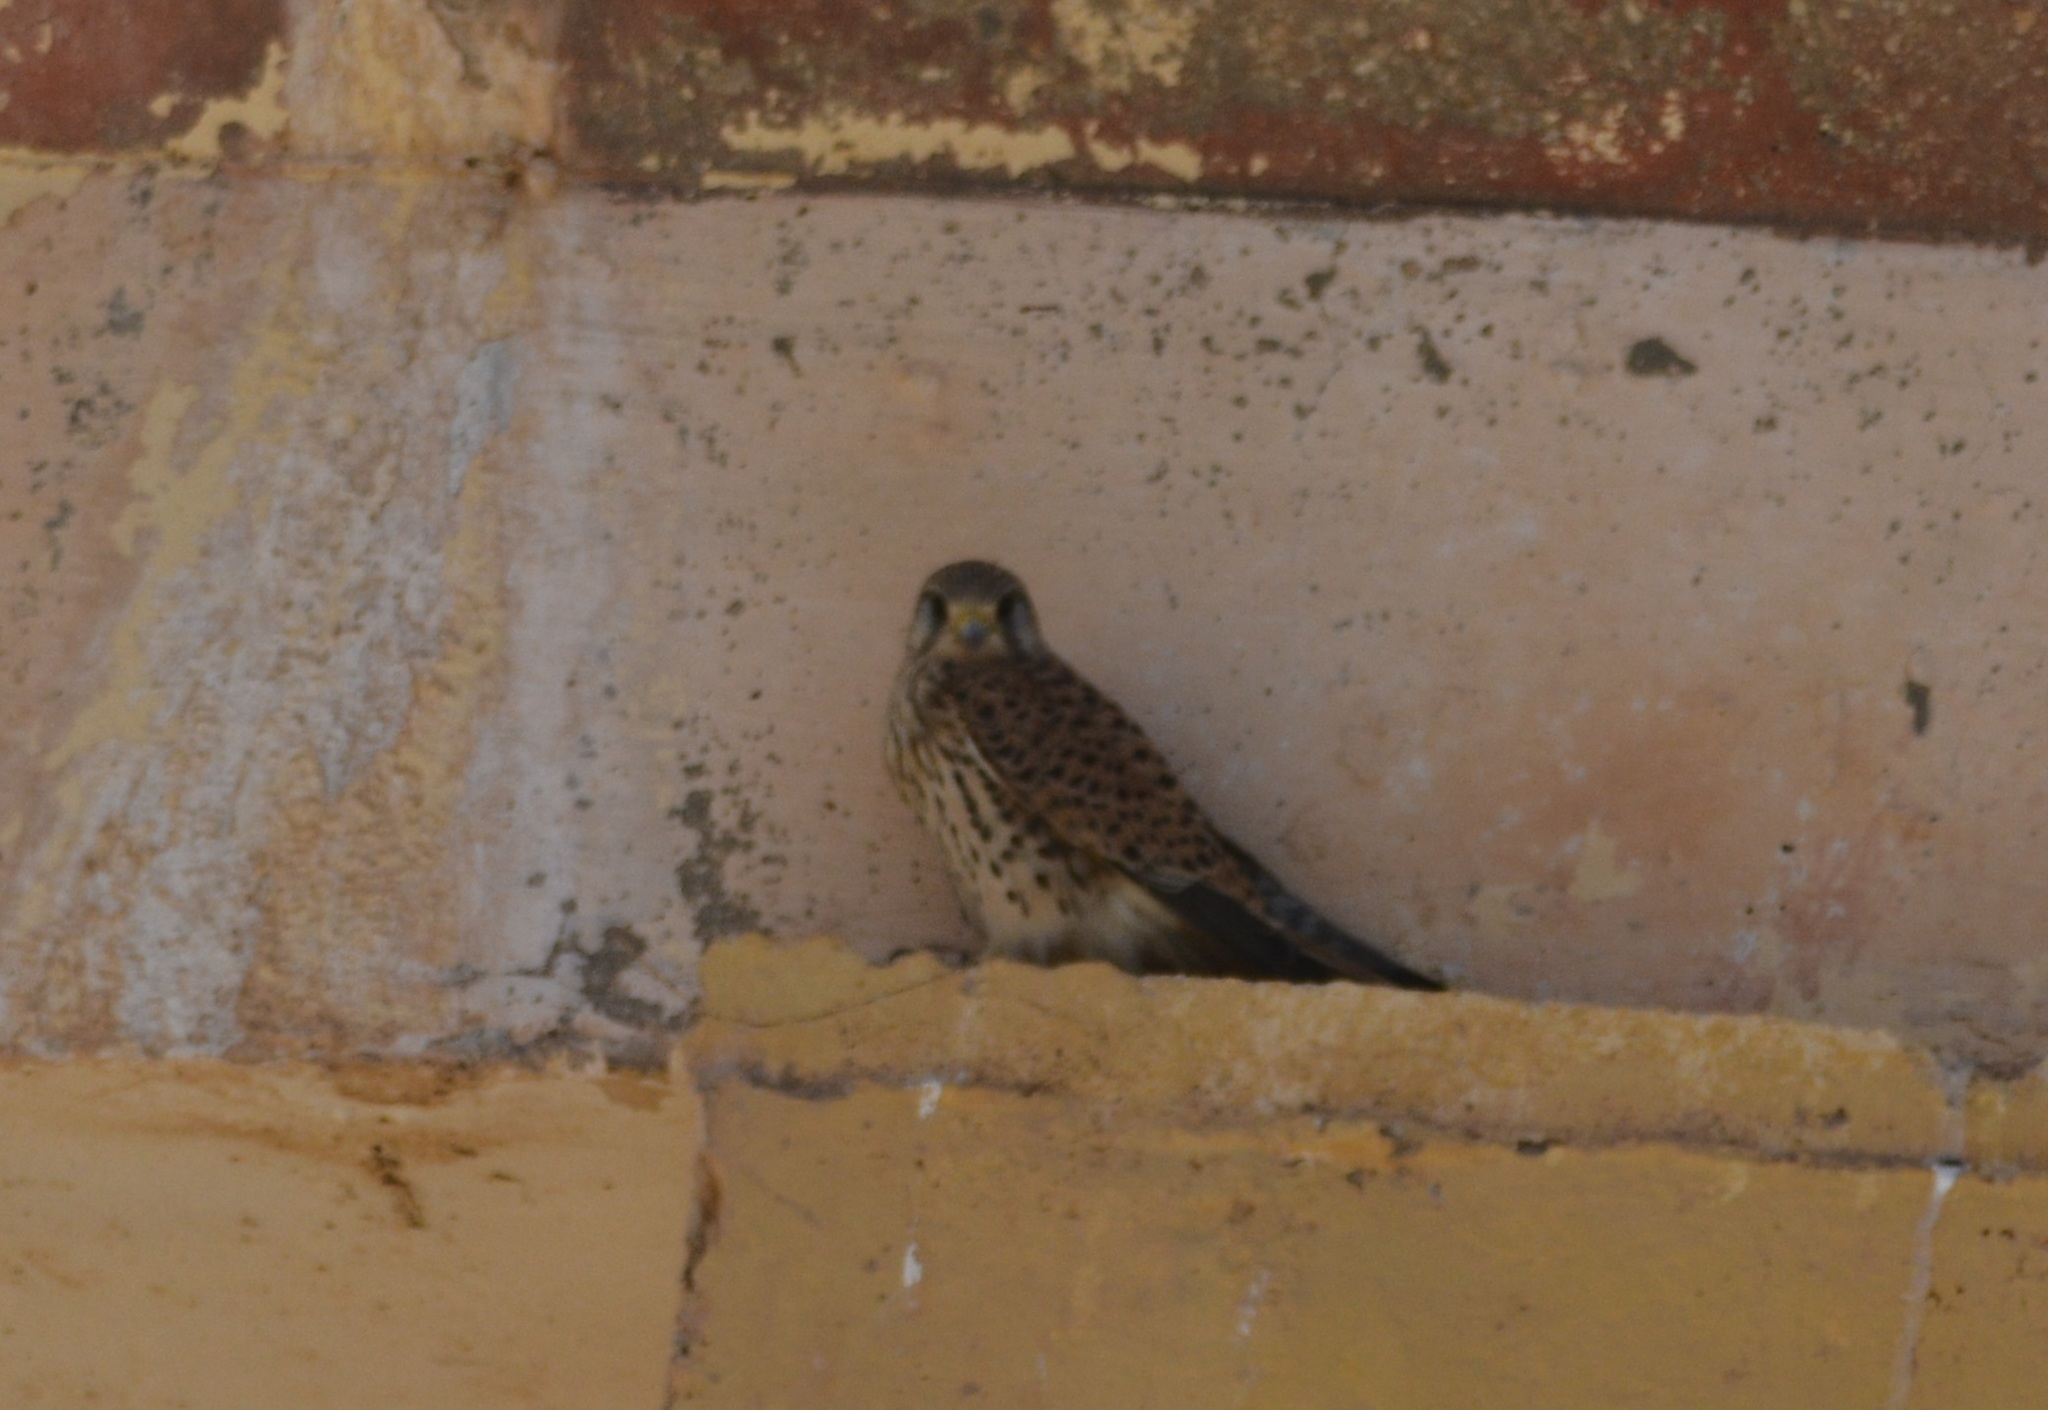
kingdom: Animalia
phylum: Chordata
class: Aves
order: Falconiformes
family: Falconidae
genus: Falco
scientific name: Falco tinnunculus
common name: Common kestrel
